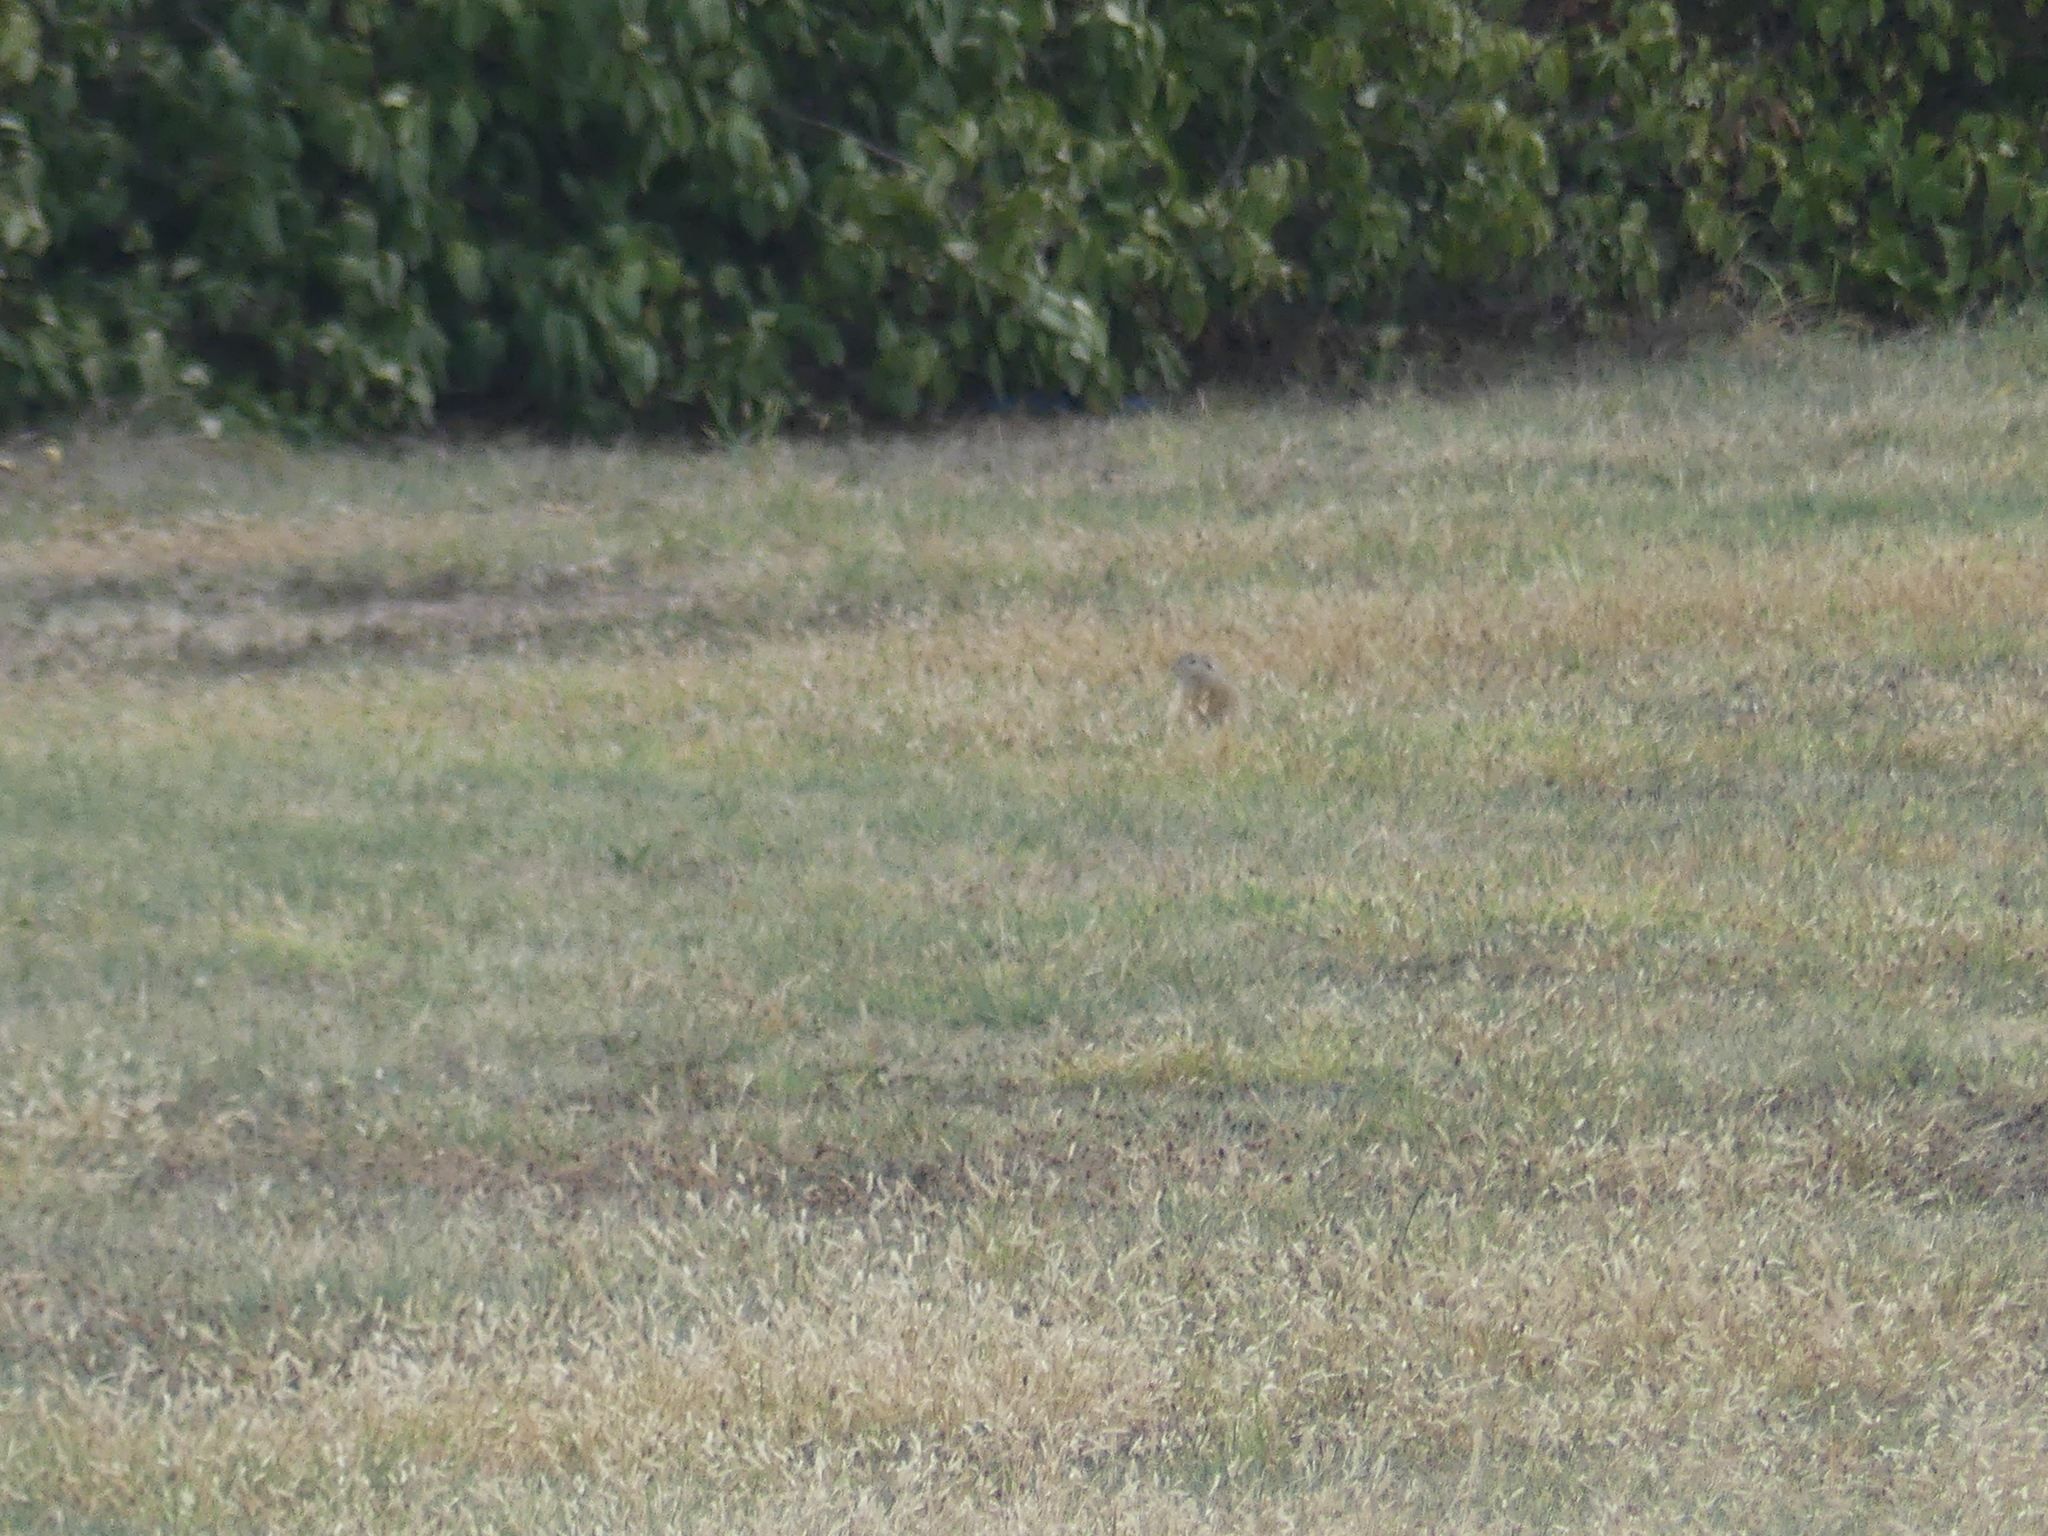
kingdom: Animalia
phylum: Chordata
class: Mammalia
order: Rodentia
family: Sciuridae
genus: Spermophilus
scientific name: Spermophilus citellus
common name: European ground squirrel
